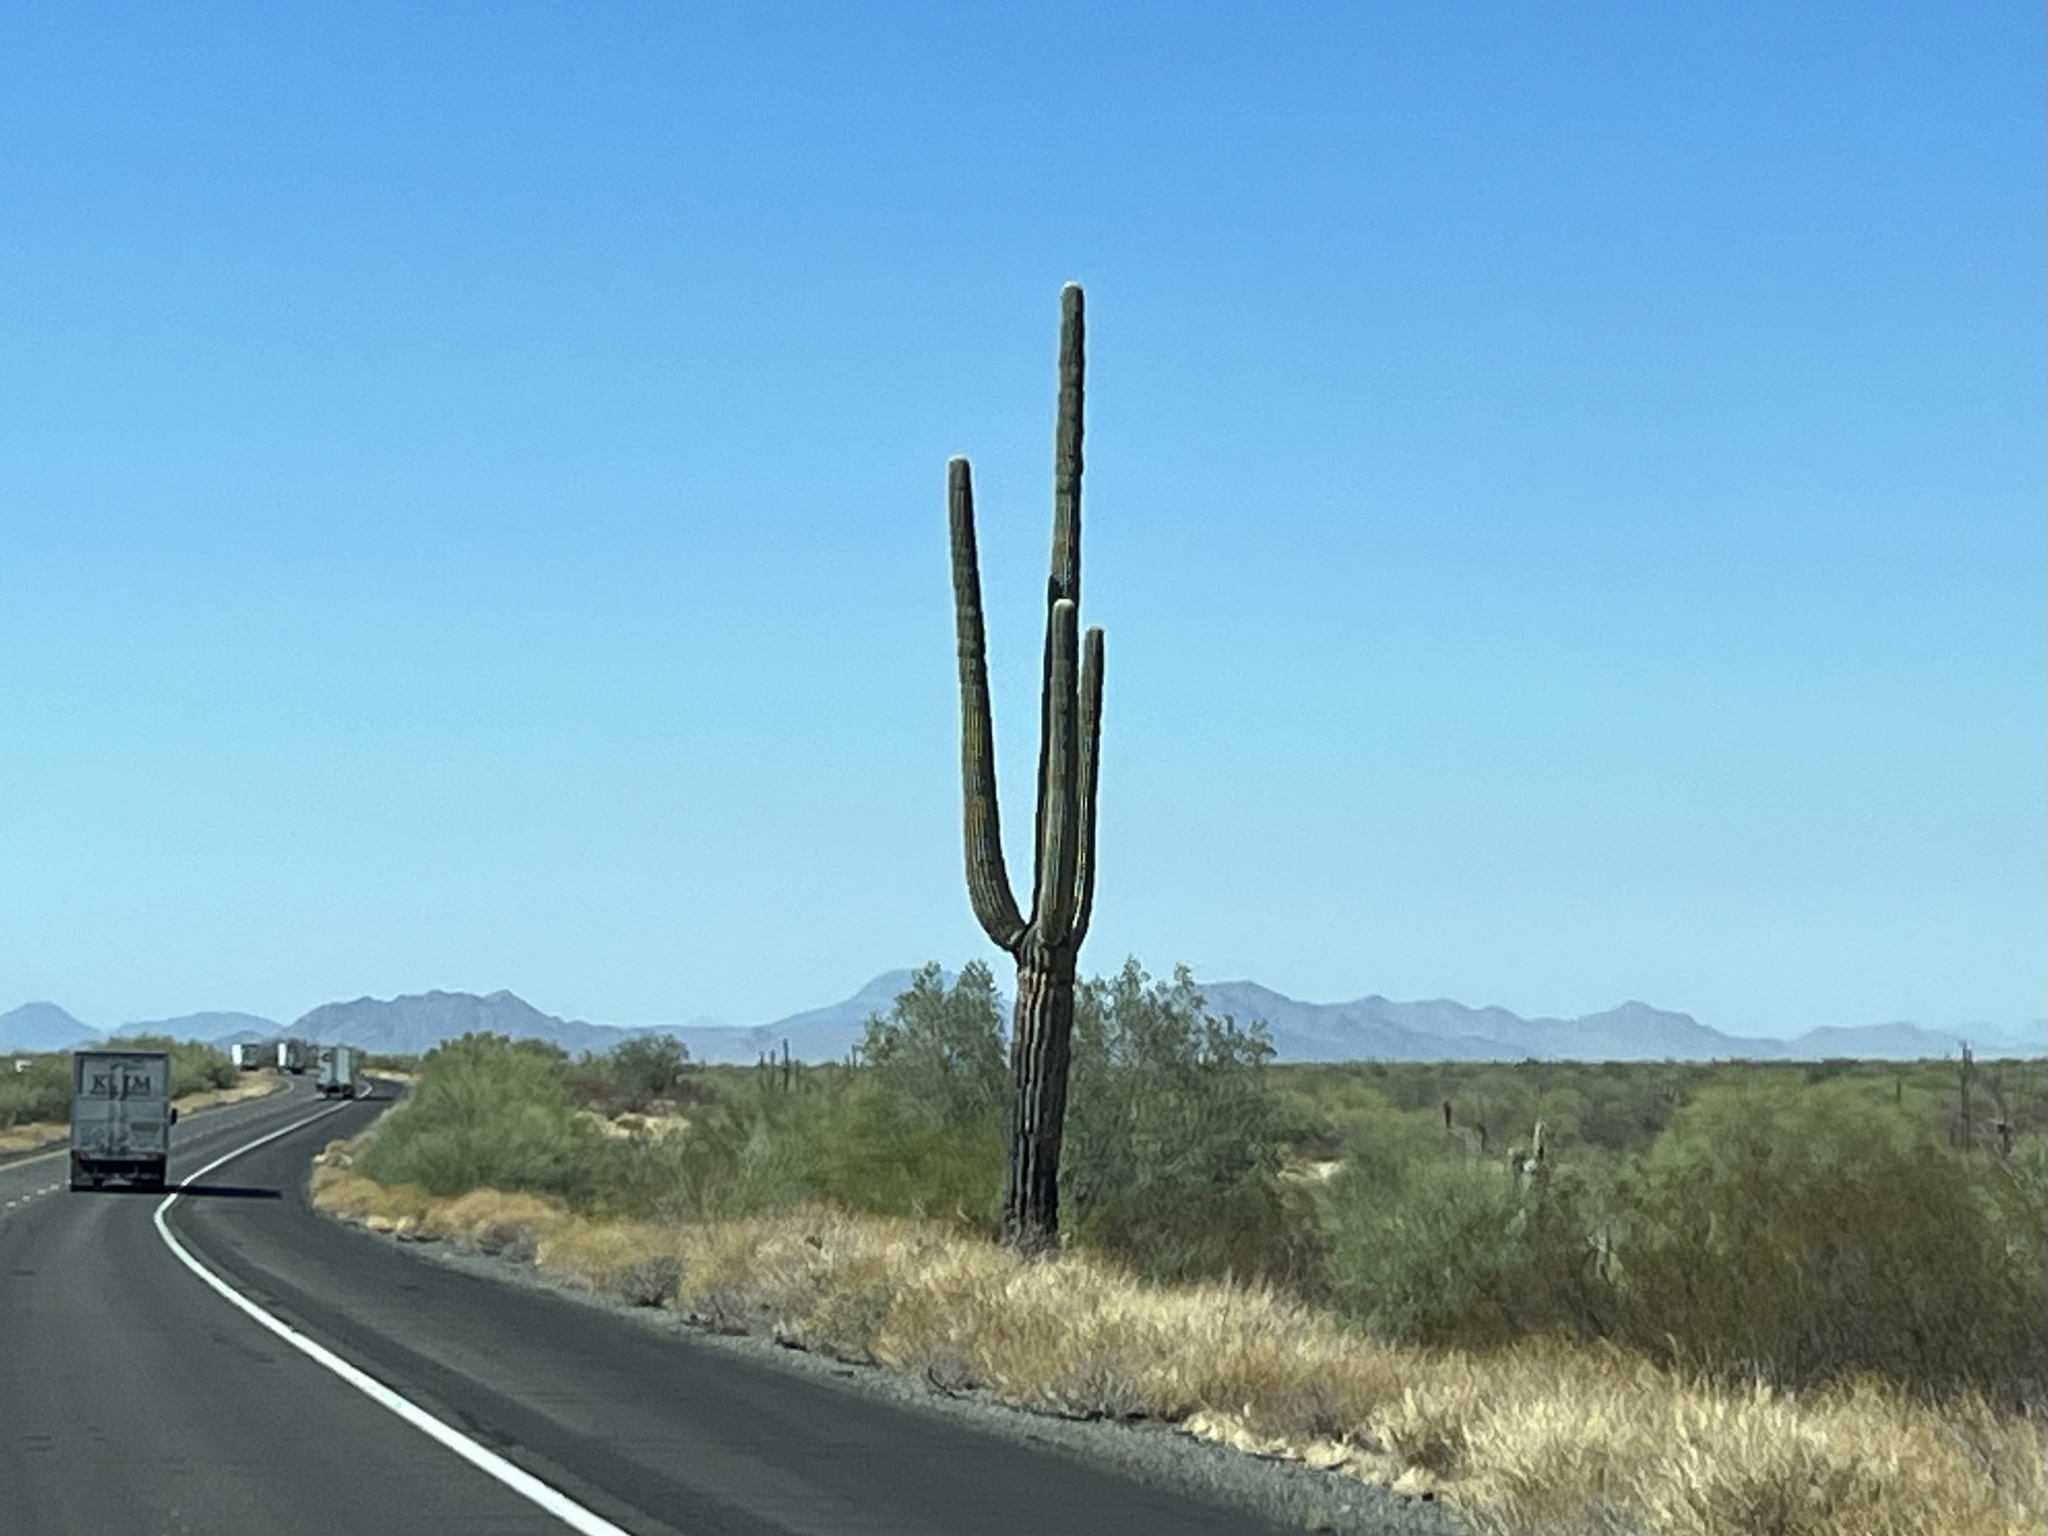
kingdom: Plantae
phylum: Tracheophyta
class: Magnoliopsida
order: Caryophyllales
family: Cactaceae
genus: Carnegiea
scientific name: Carnegiea gigantea
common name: Saguaro
